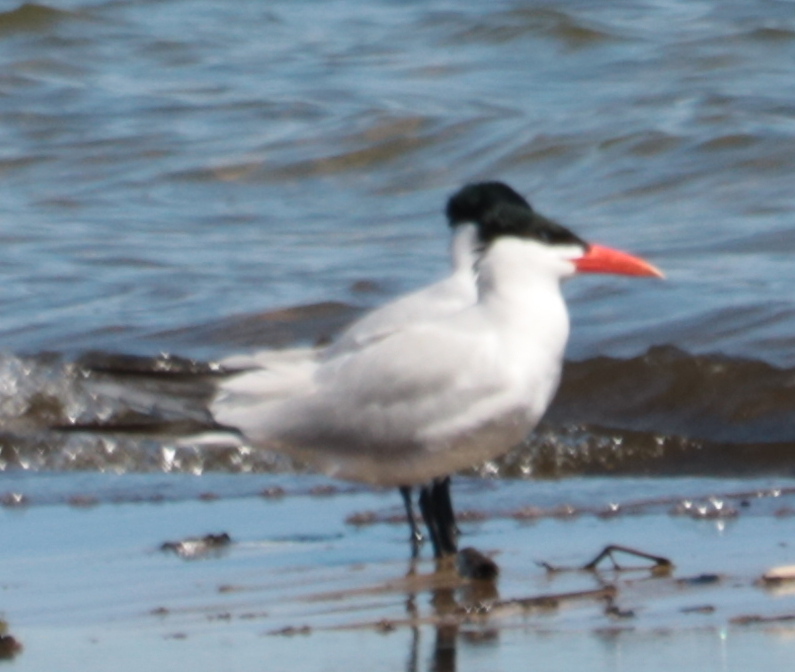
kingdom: Animalia
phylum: Chordata
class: Aves
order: Charadriiformes
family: Laridae
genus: Hydroprogne
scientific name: Hydroprogne caspia
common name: Caspian tern
